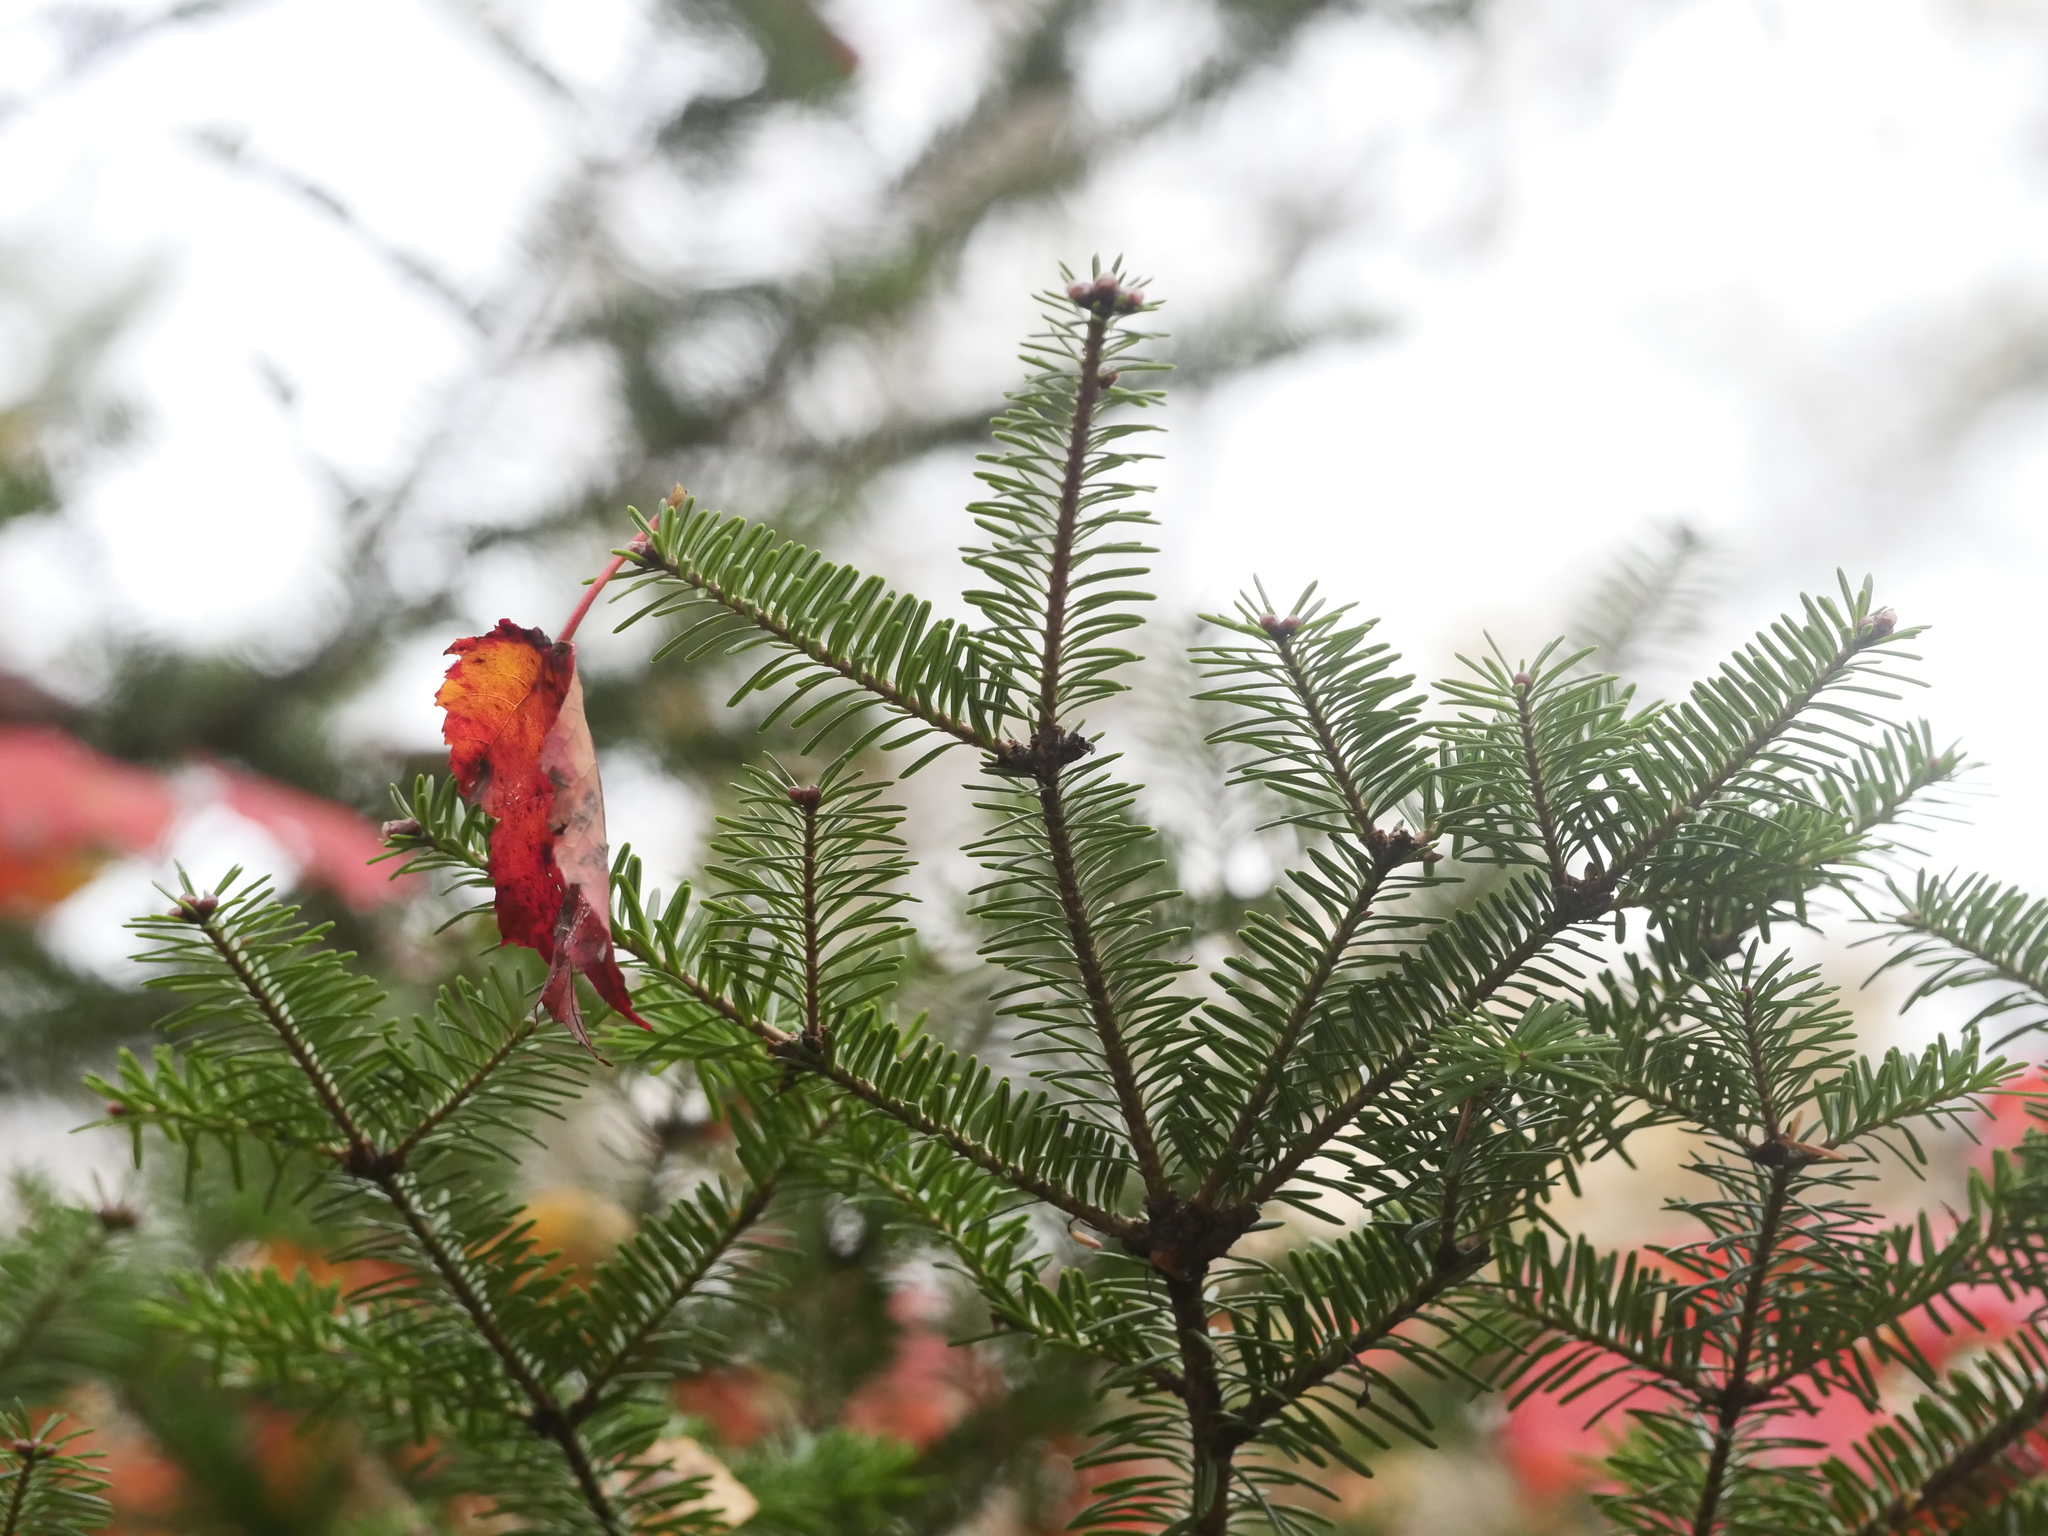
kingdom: Plantae
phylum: Tracheophyta
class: Pinopsida
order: Pinales
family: Pinaceae
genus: Abies
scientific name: Abies balsamea
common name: Balsam fir
